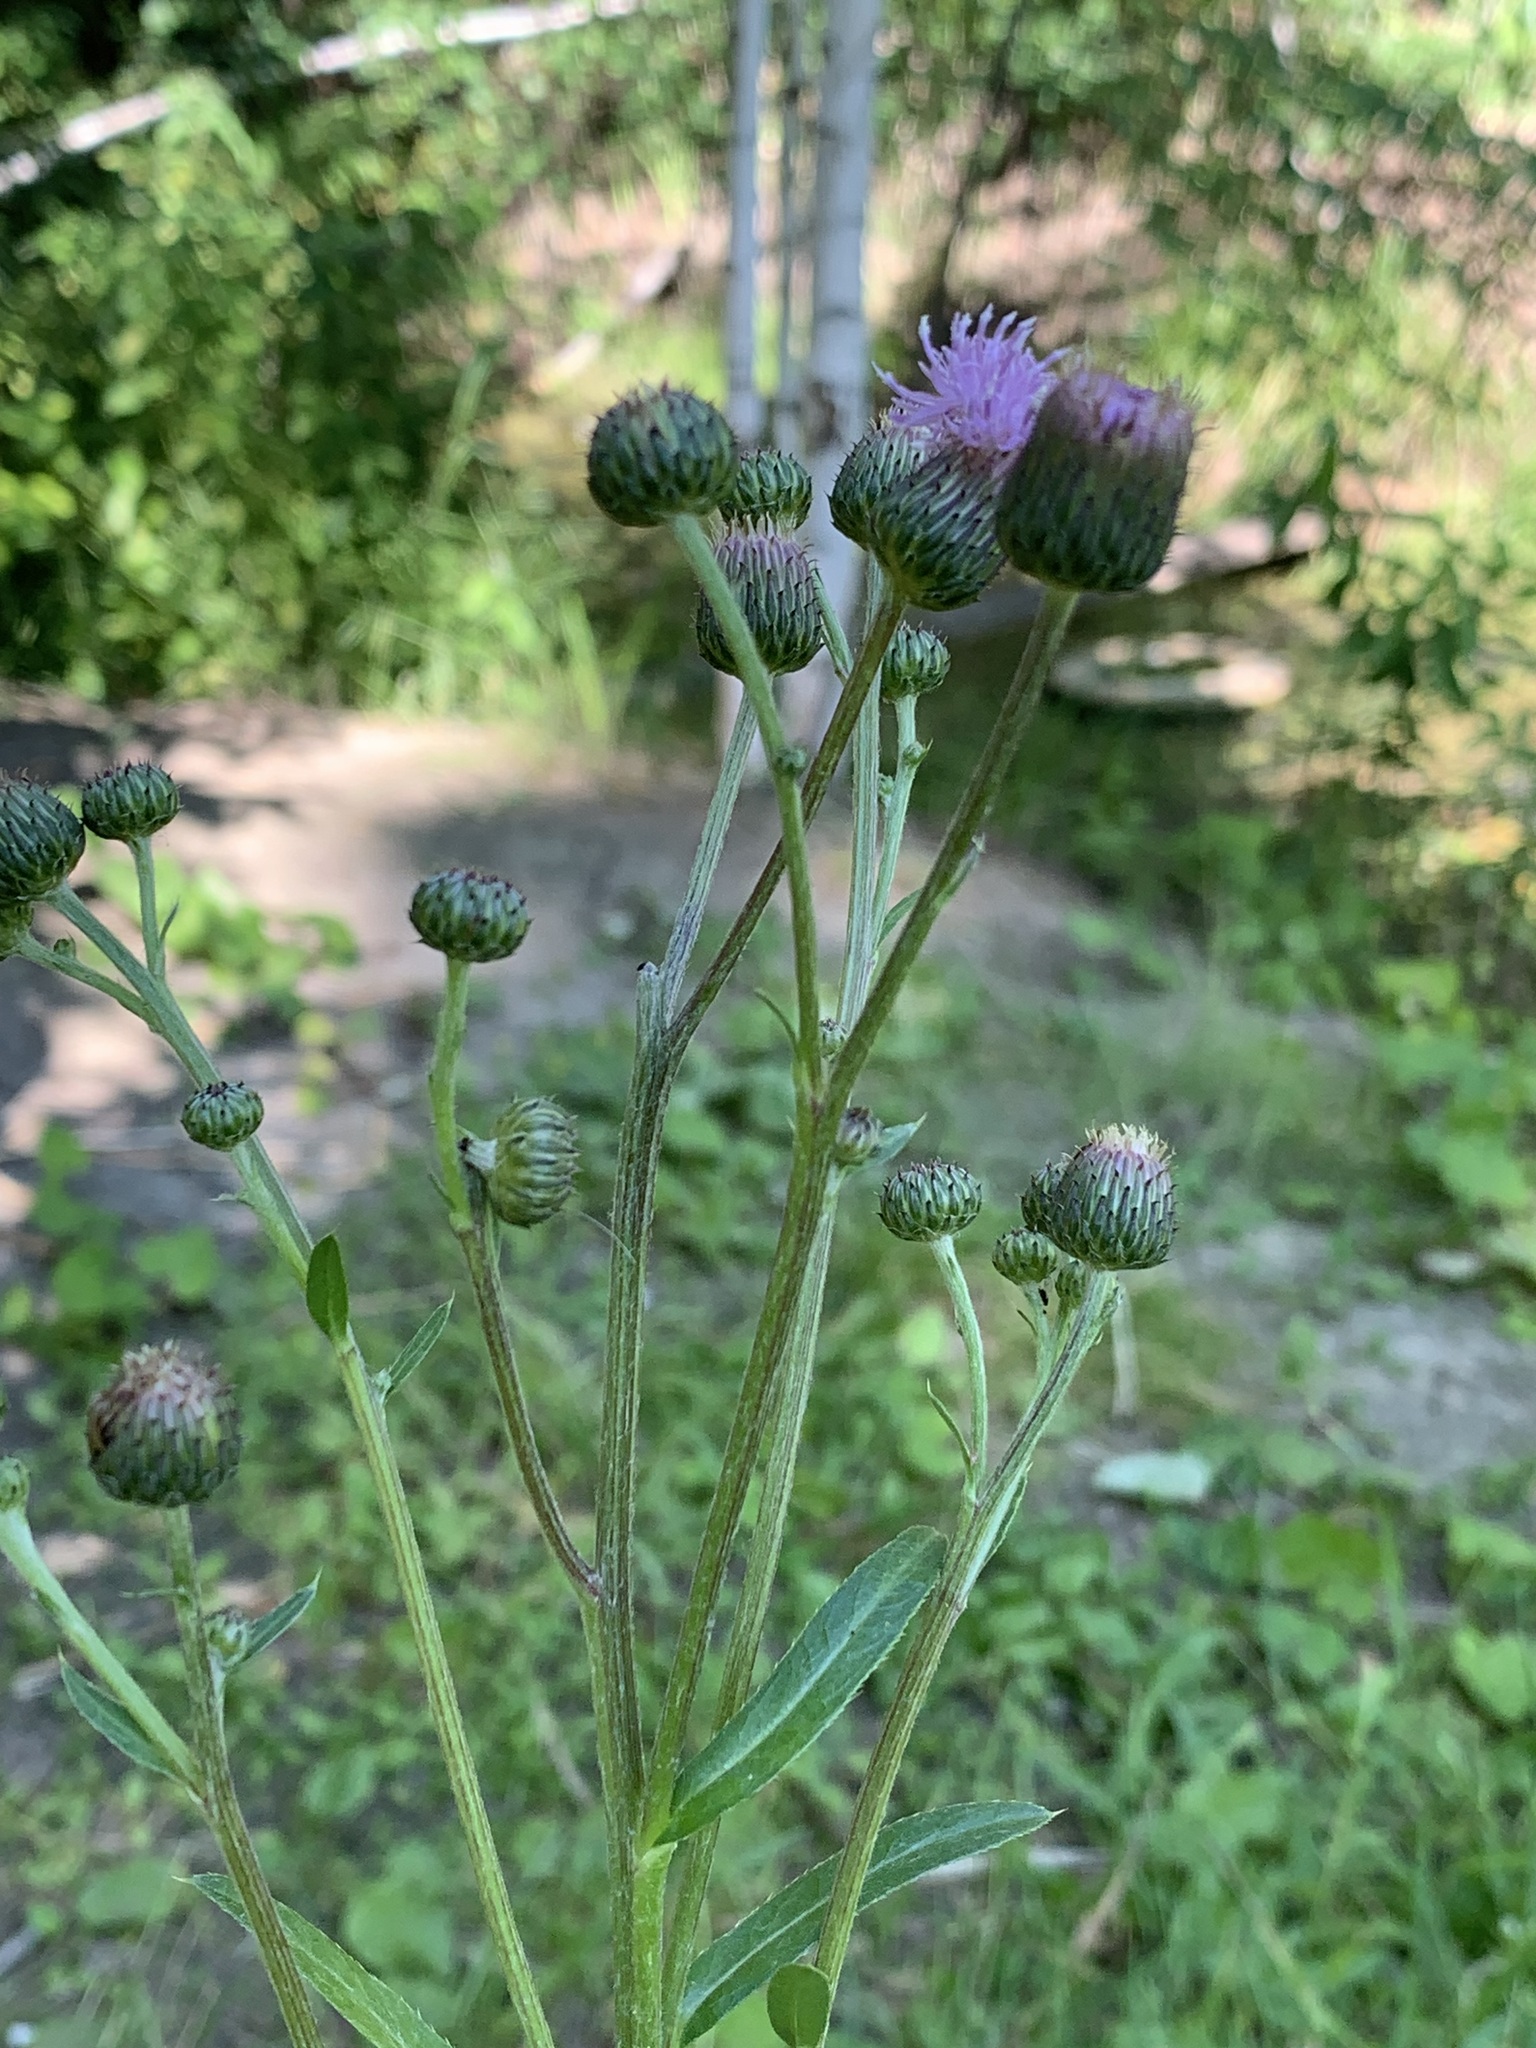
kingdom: Plantae
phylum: Tracheophyta
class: Magnoliopsida
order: Asterales
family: Asteraceae
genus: Cirsium
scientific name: Cirsium arvense
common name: Creeping thistle
